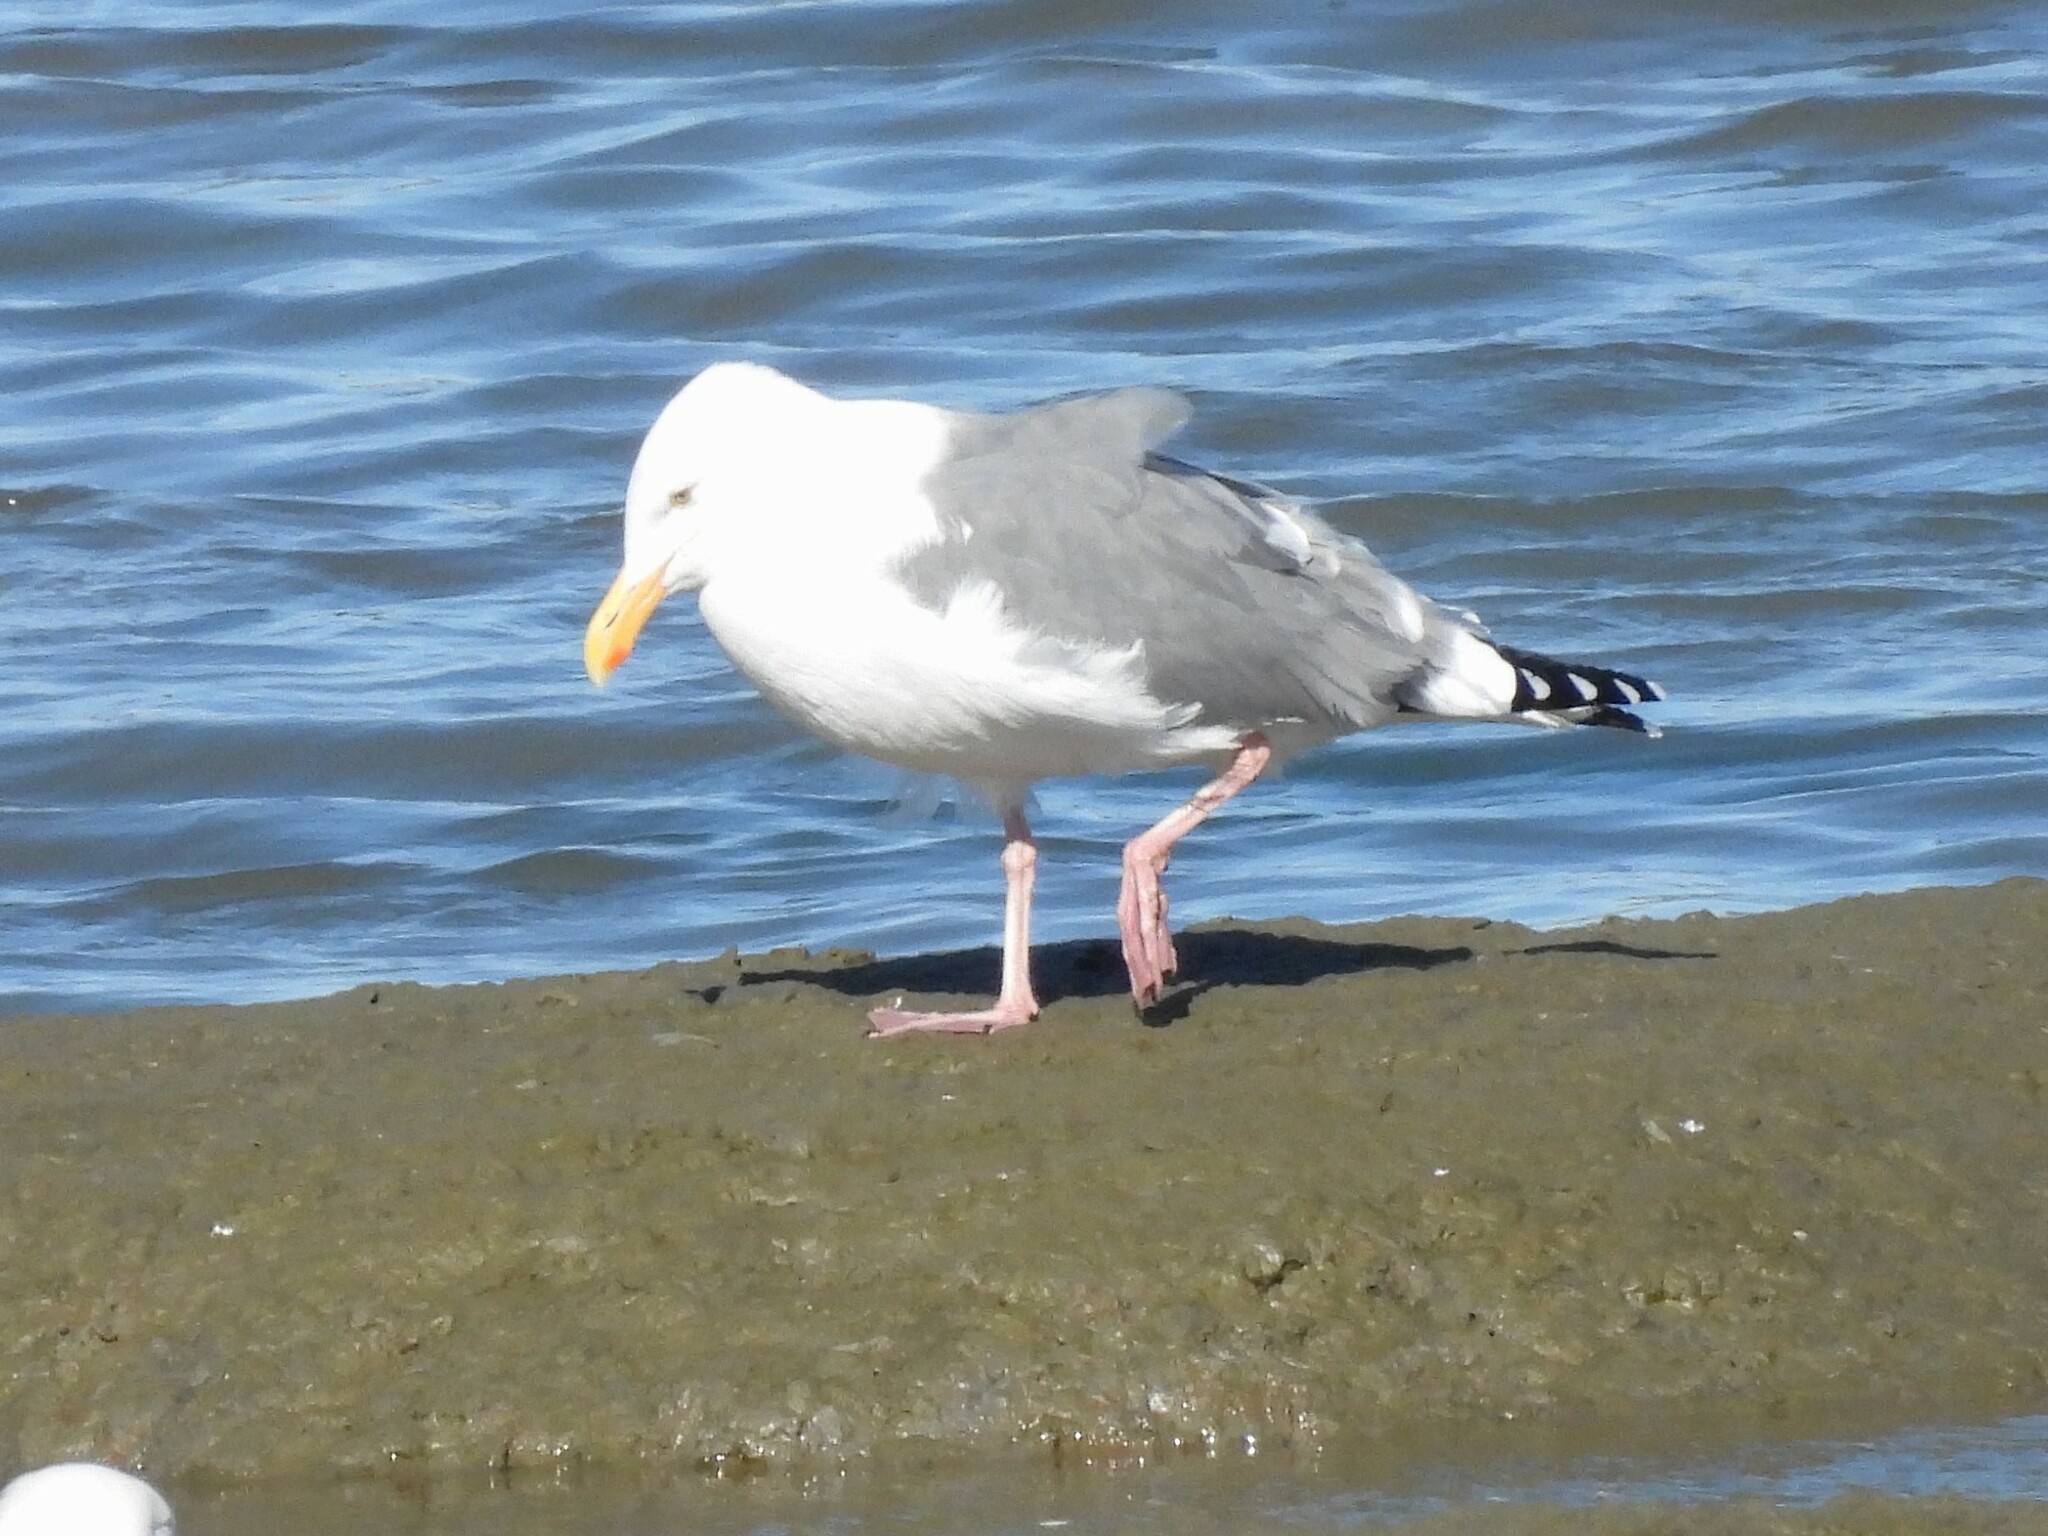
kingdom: Animalia
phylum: Chordata
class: Aves
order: Charadriiformes
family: Laridae
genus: Larus
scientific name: Larus occidentalis
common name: Western gull
